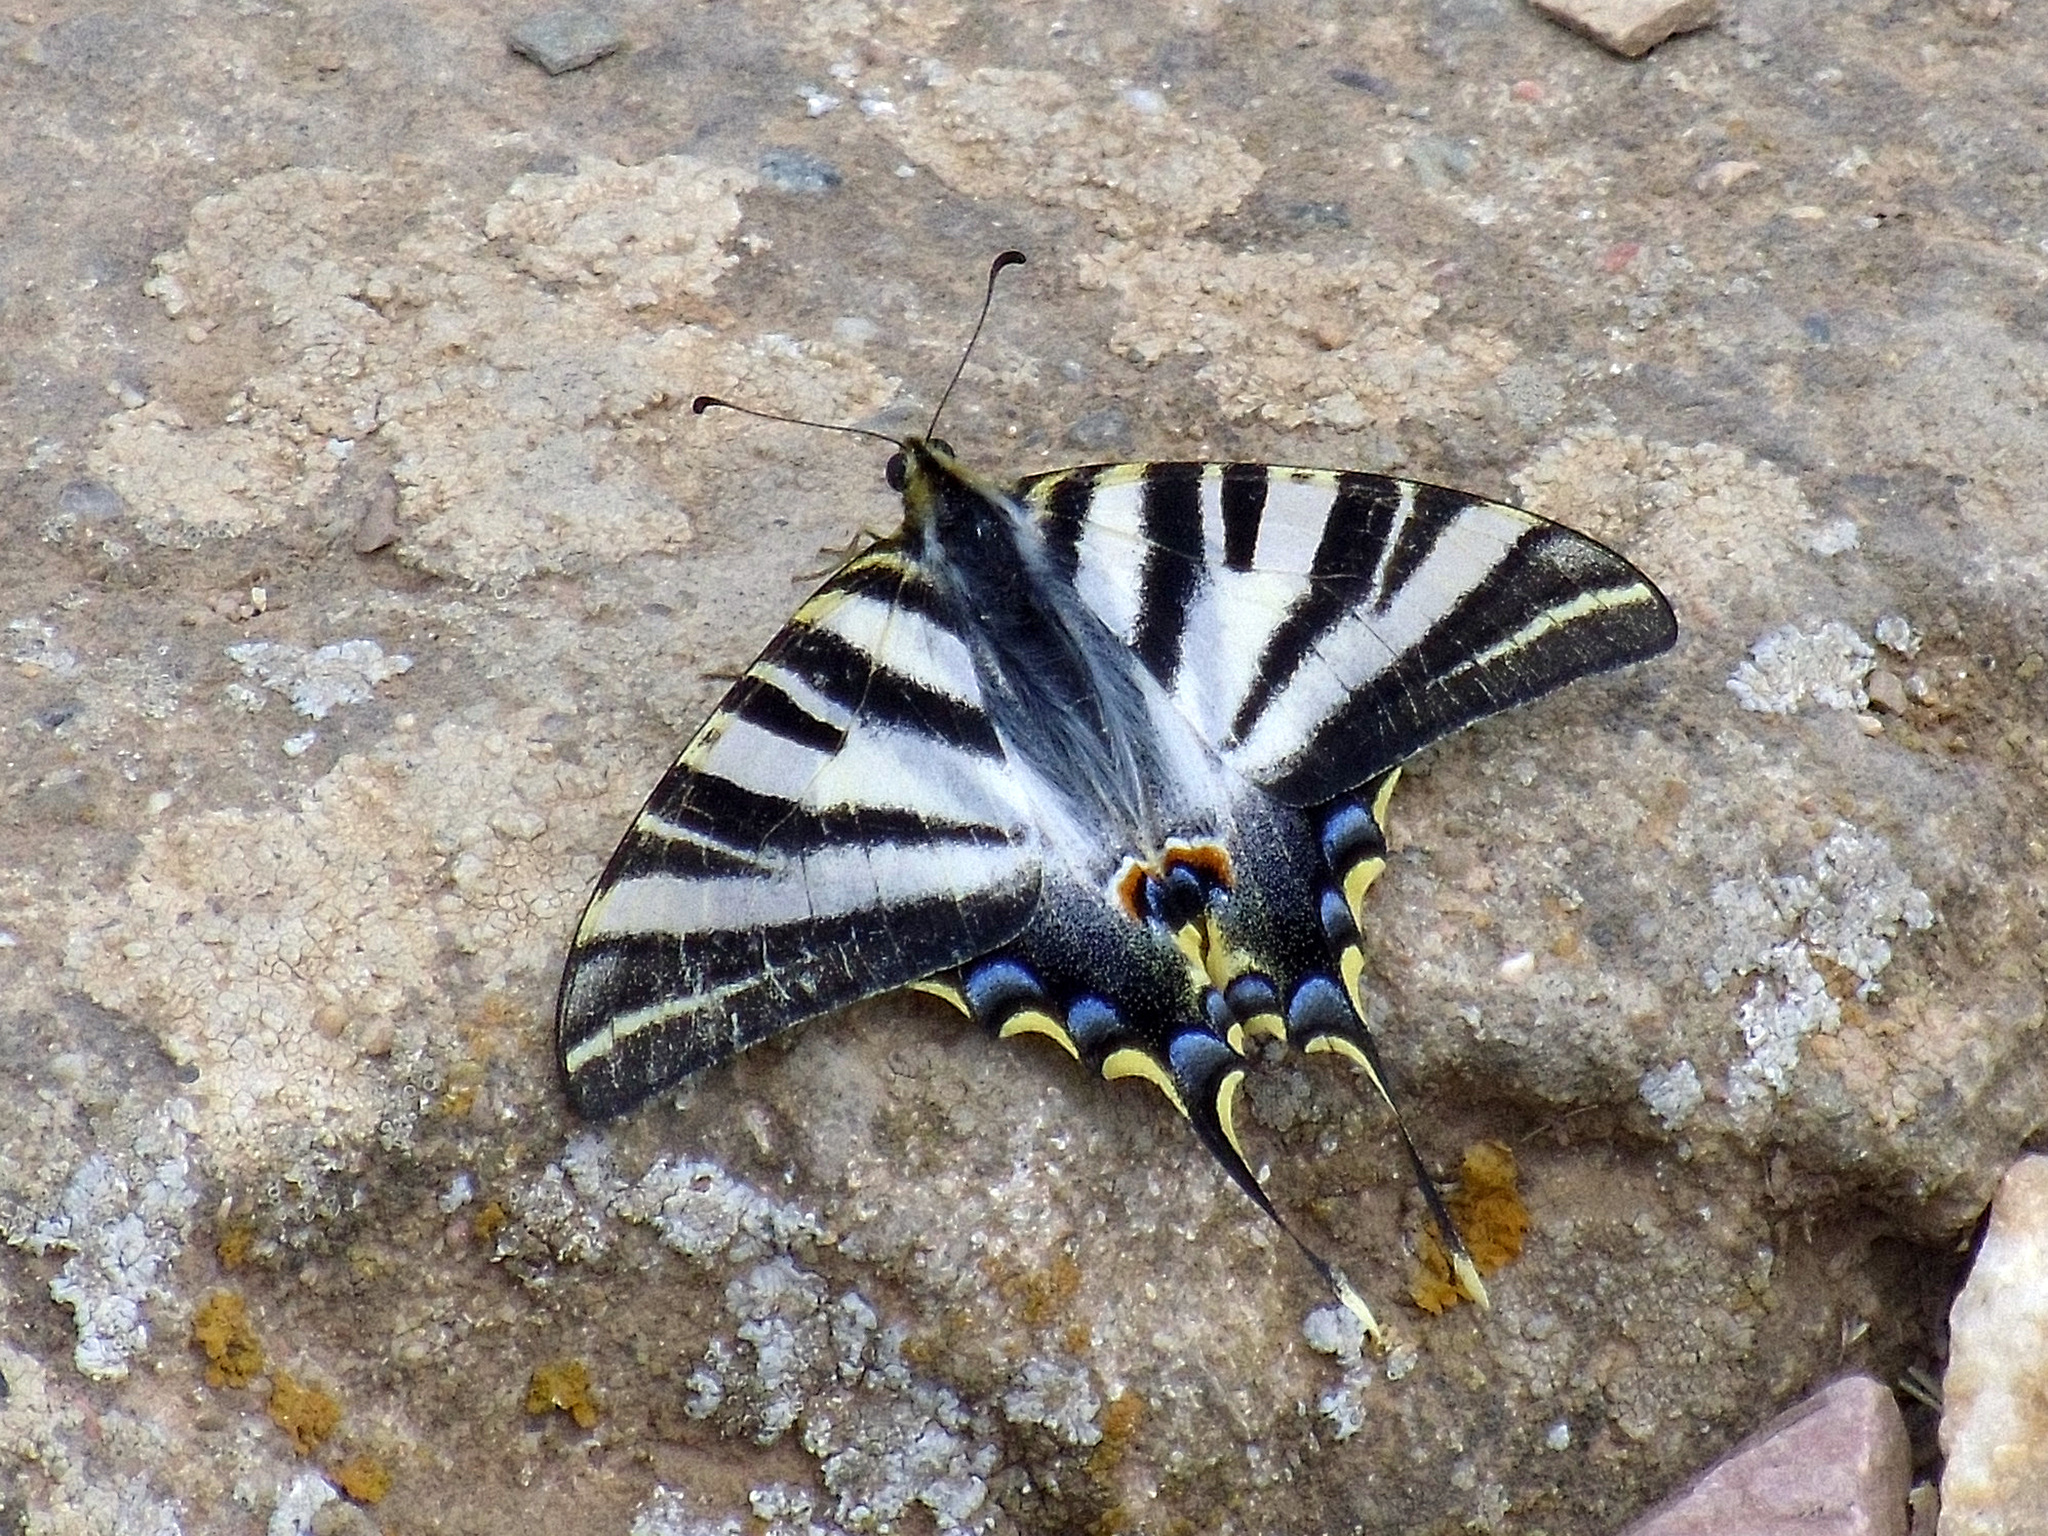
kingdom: Animalia
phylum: Arthropoda
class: Insecta
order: Lepidoptera
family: Papilionidae
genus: Iphiclides
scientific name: Iphiclides feisthamelii
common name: Iberian scarce swallowtail
